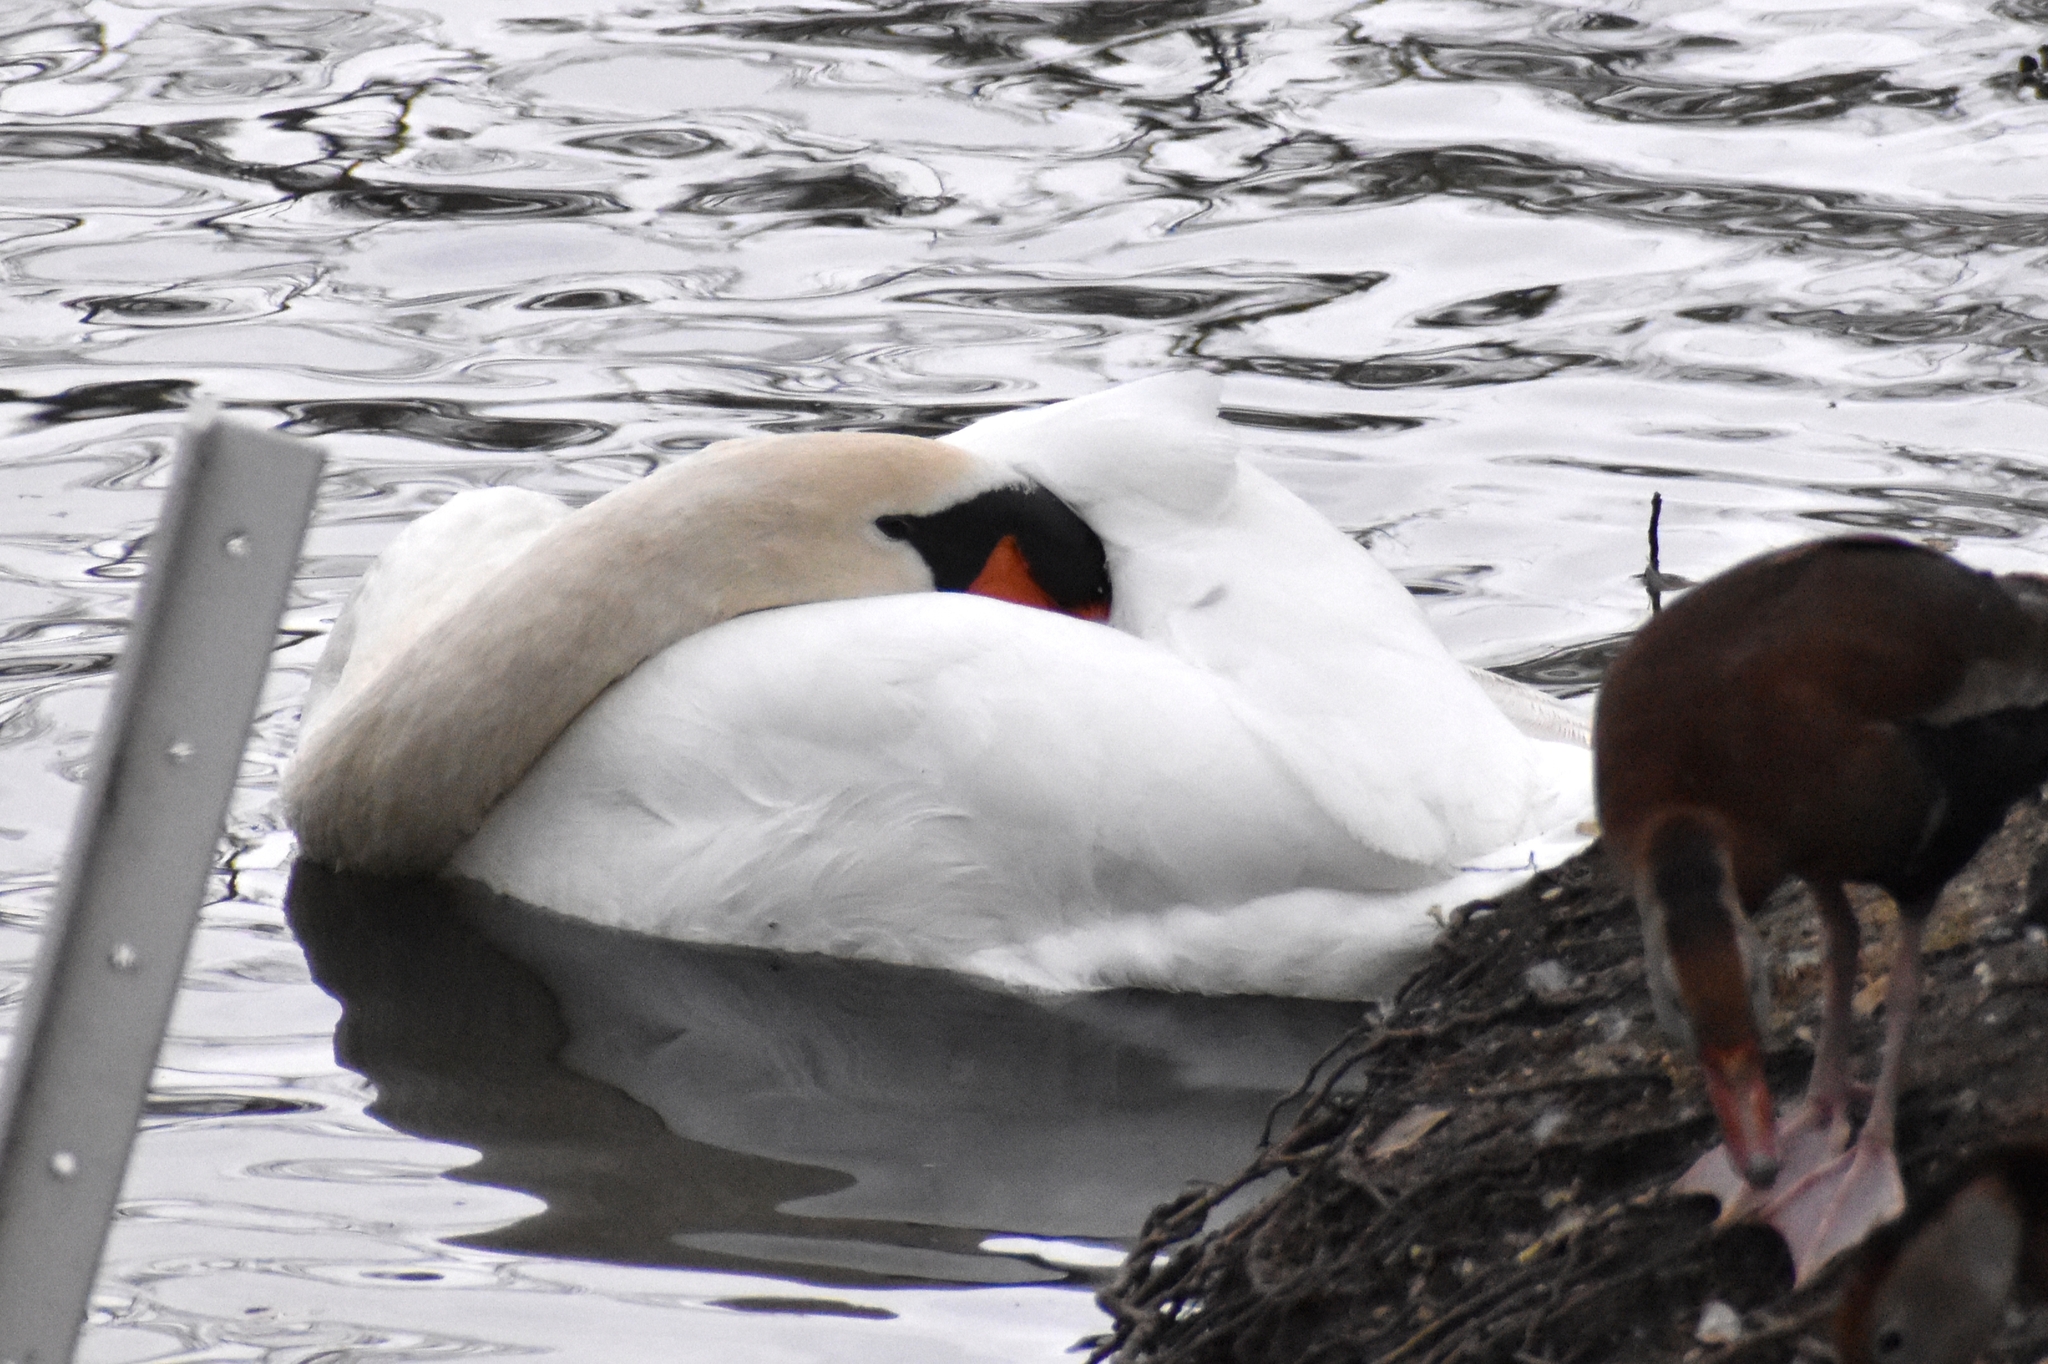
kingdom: Animalia
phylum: Chordata
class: Aves
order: Anseriformes
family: Anatidae
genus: Cygnus
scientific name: Cygnus olor
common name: Mute swan
